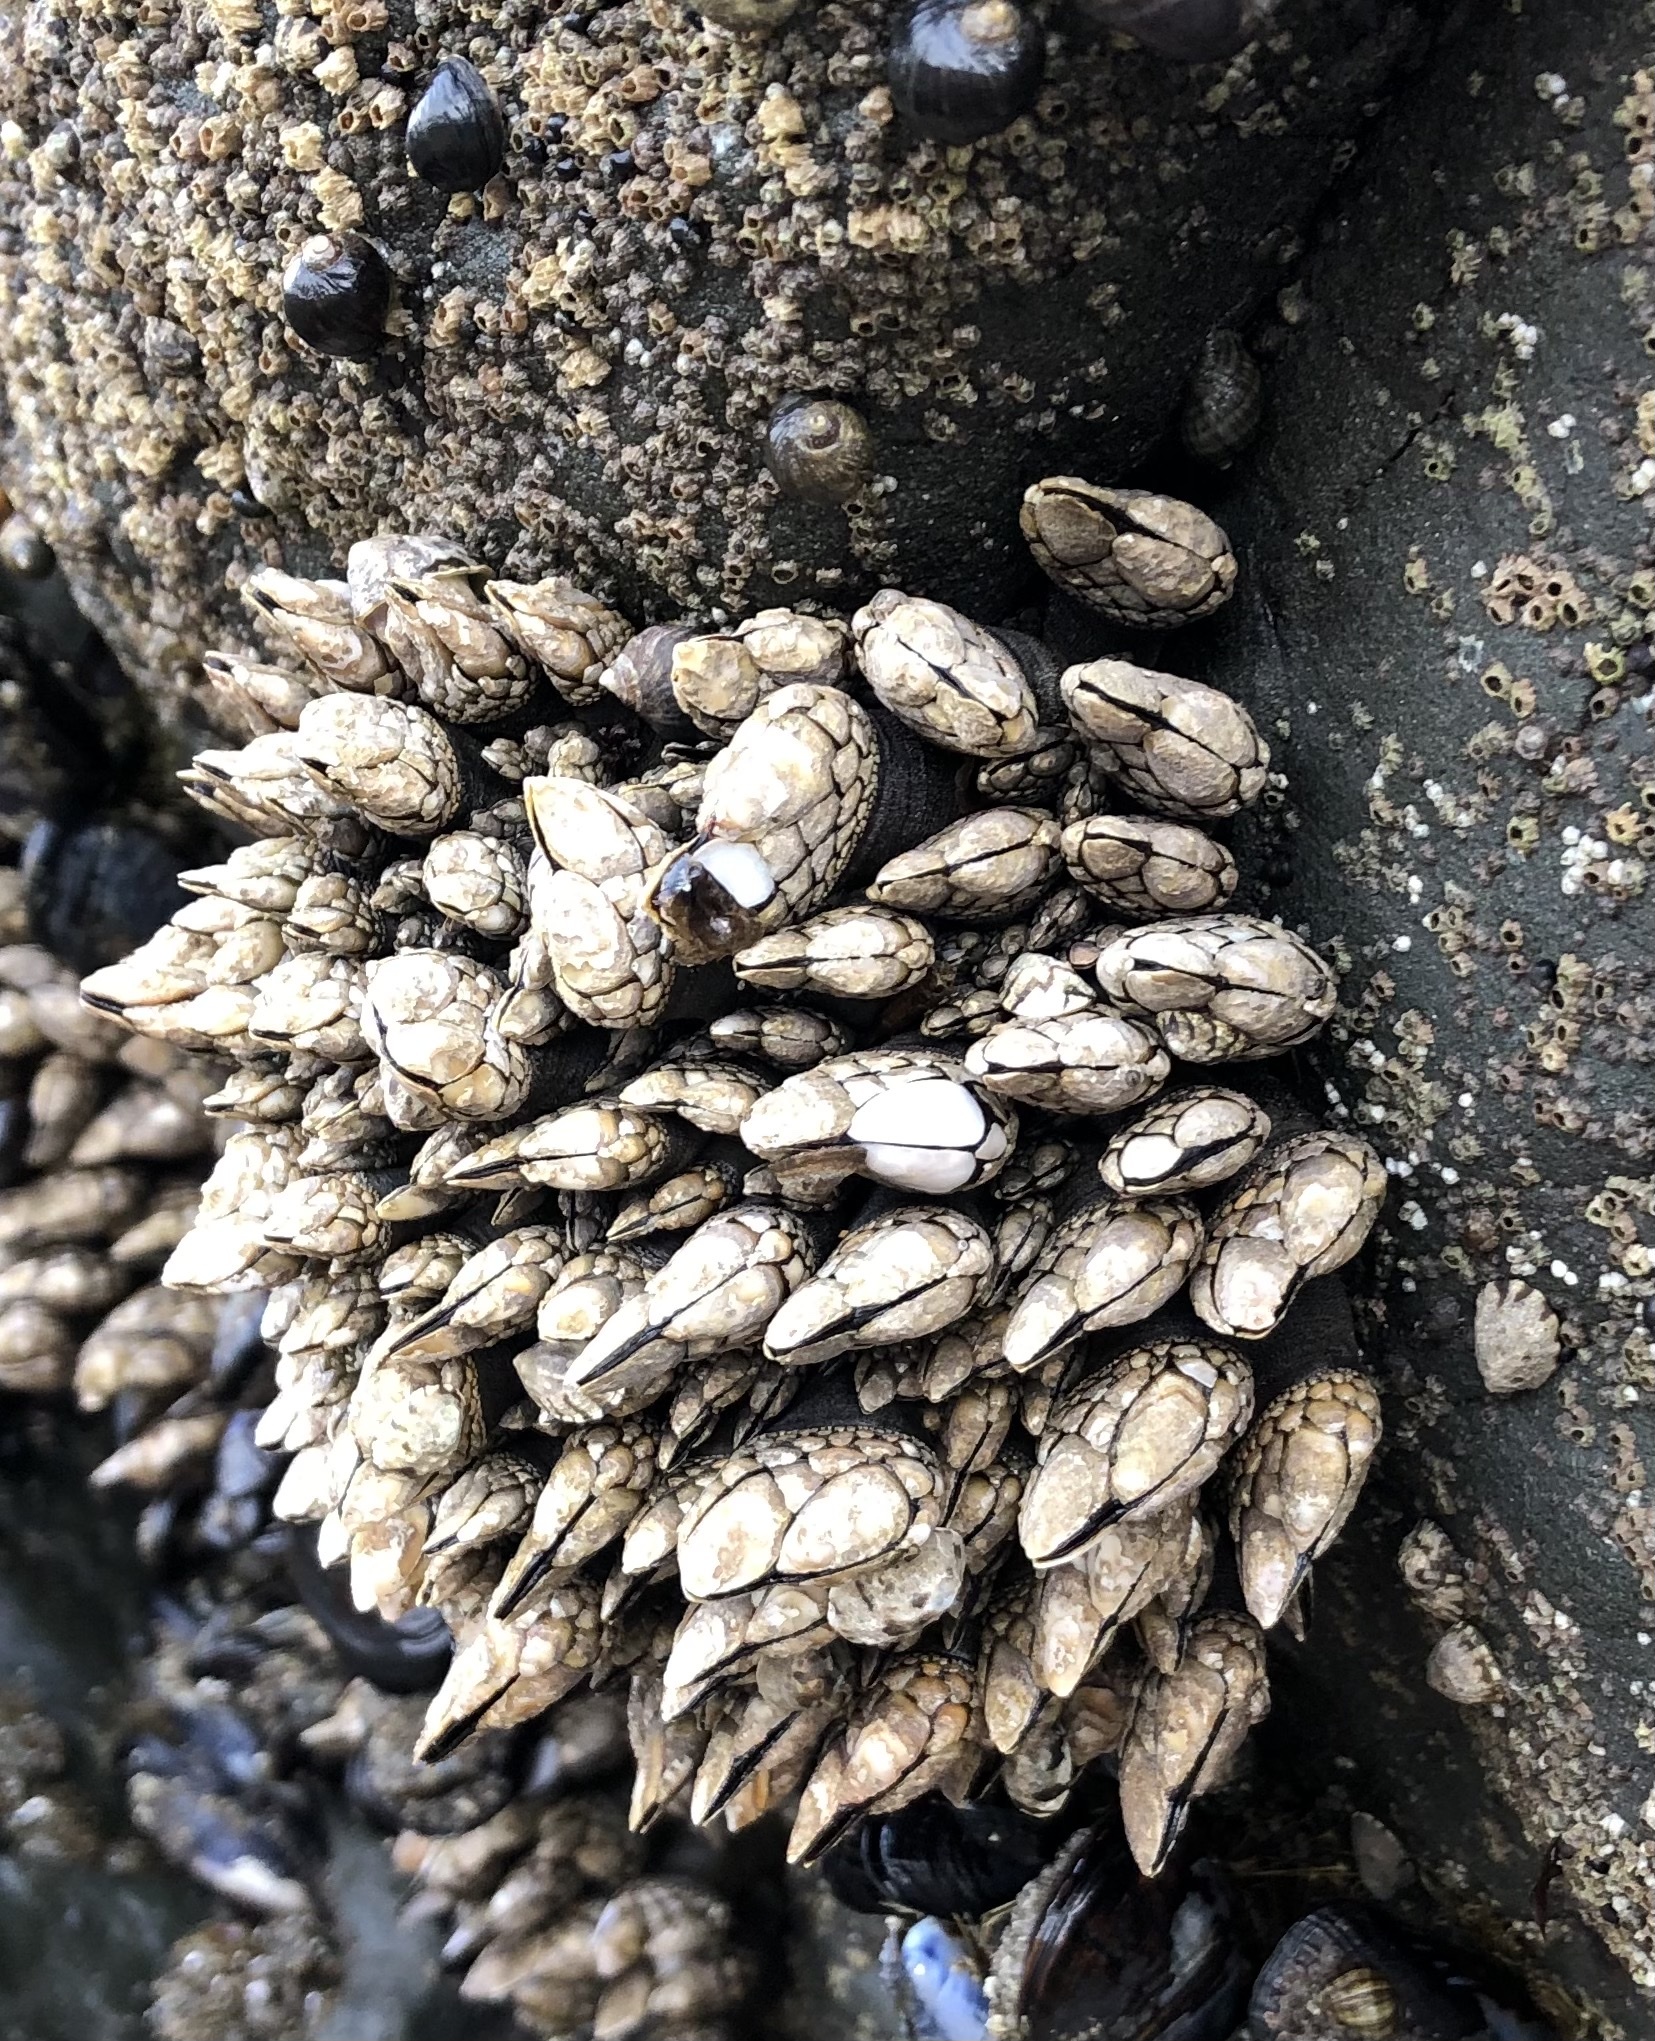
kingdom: Animalia
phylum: Arthropoda
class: Maxillopoda
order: Pedunculata
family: Pollicipedidae
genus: Pollicipes
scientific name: Pollicipes polymerus
